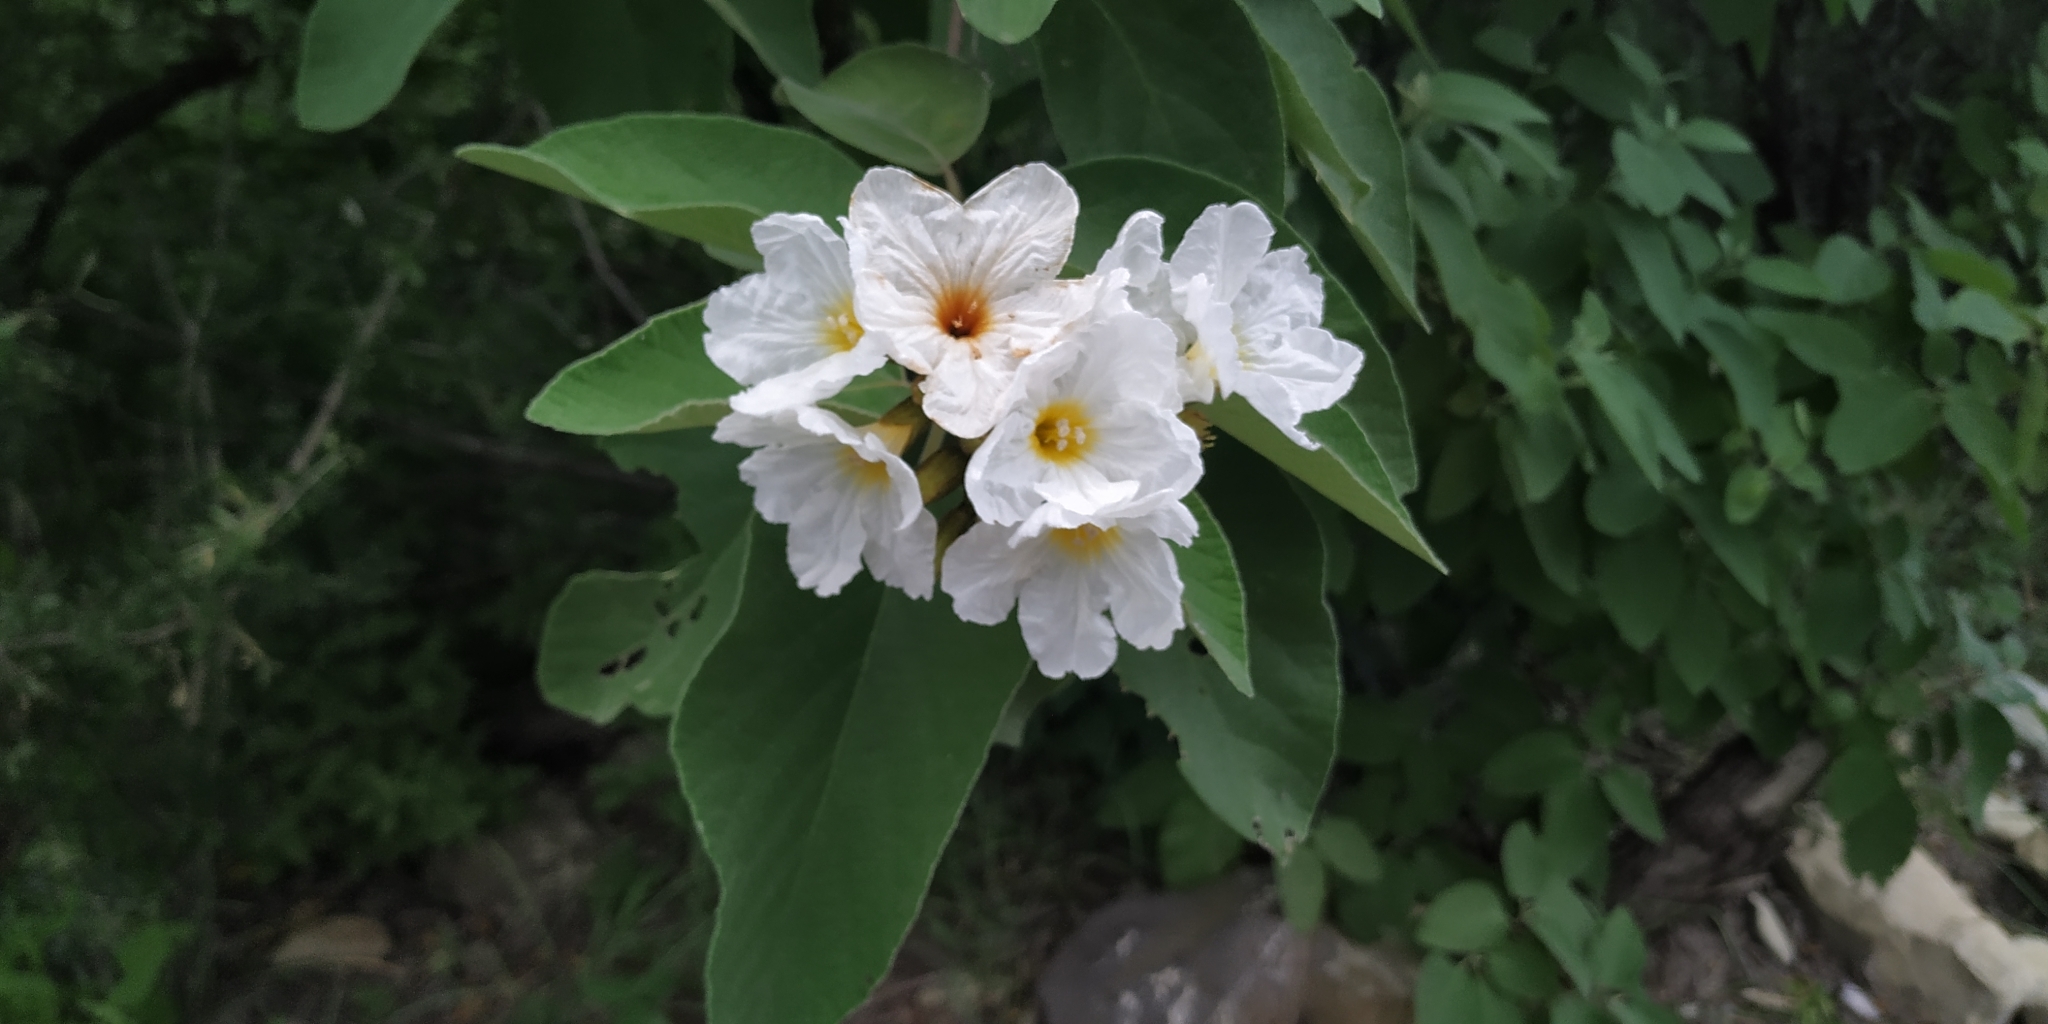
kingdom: Plantae
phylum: Tracheophyta
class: Magnoliopsida
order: Boraginales
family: Cordiaceae
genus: Cordia
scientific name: Cordia boissieri
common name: Mexican-olive
